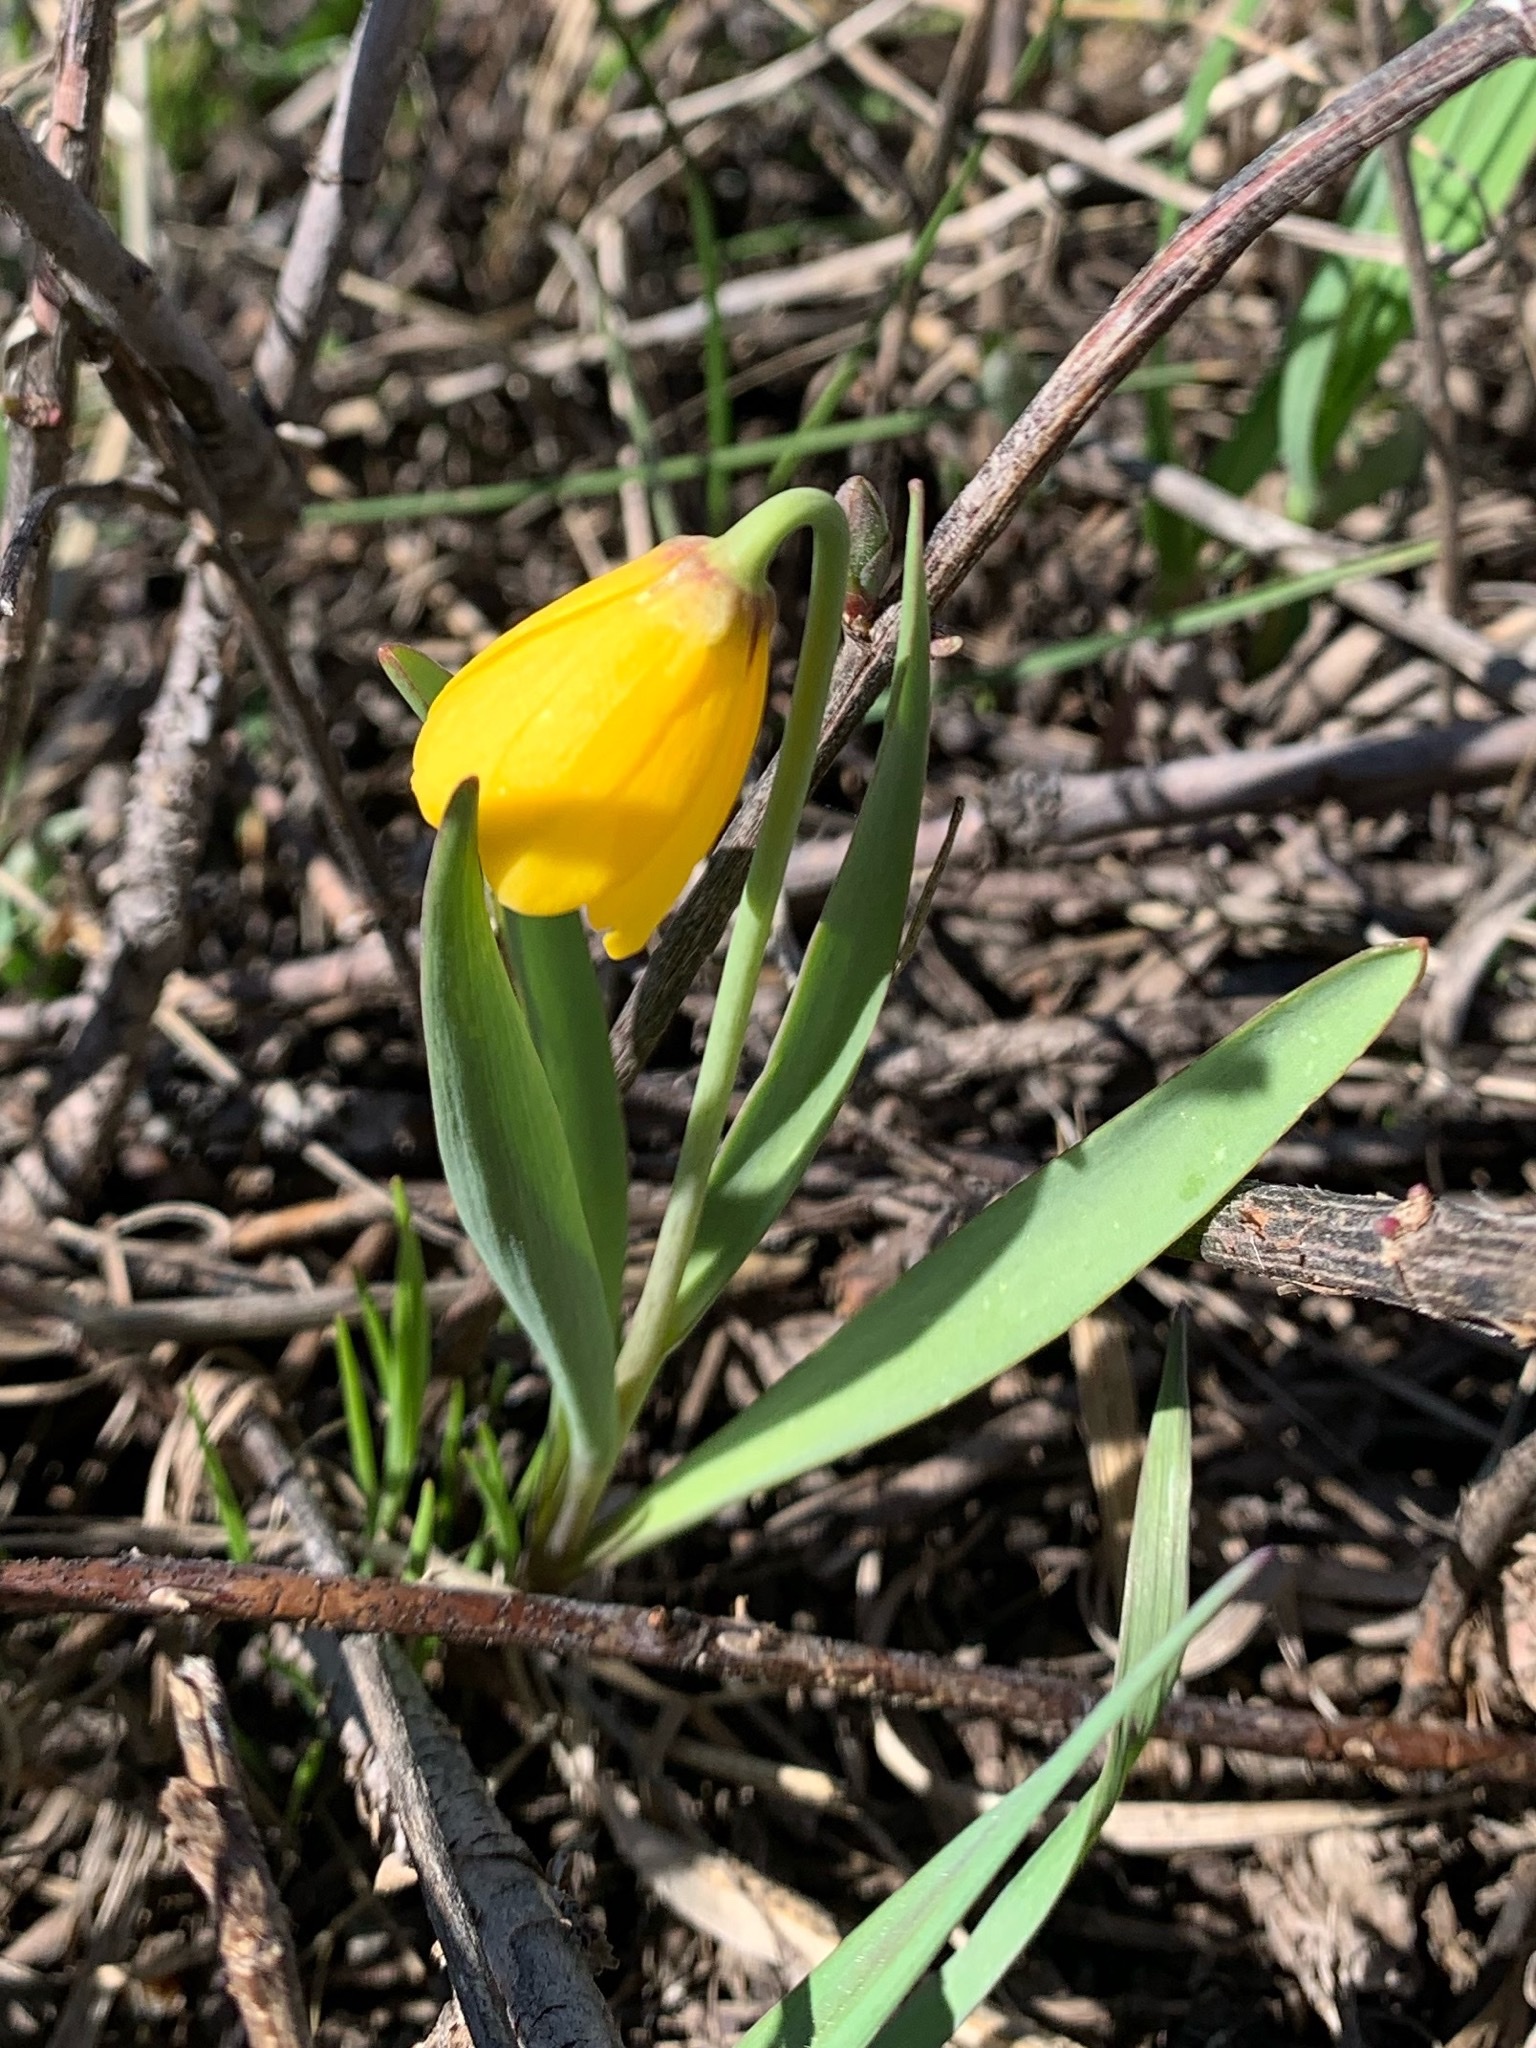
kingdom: Plantae
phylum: Tracheophyta
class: Liliopsida
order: Liliales
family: Liliaceae
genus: Fritillaria
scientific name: Fritillaria pudica
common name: Yellow fritillary
